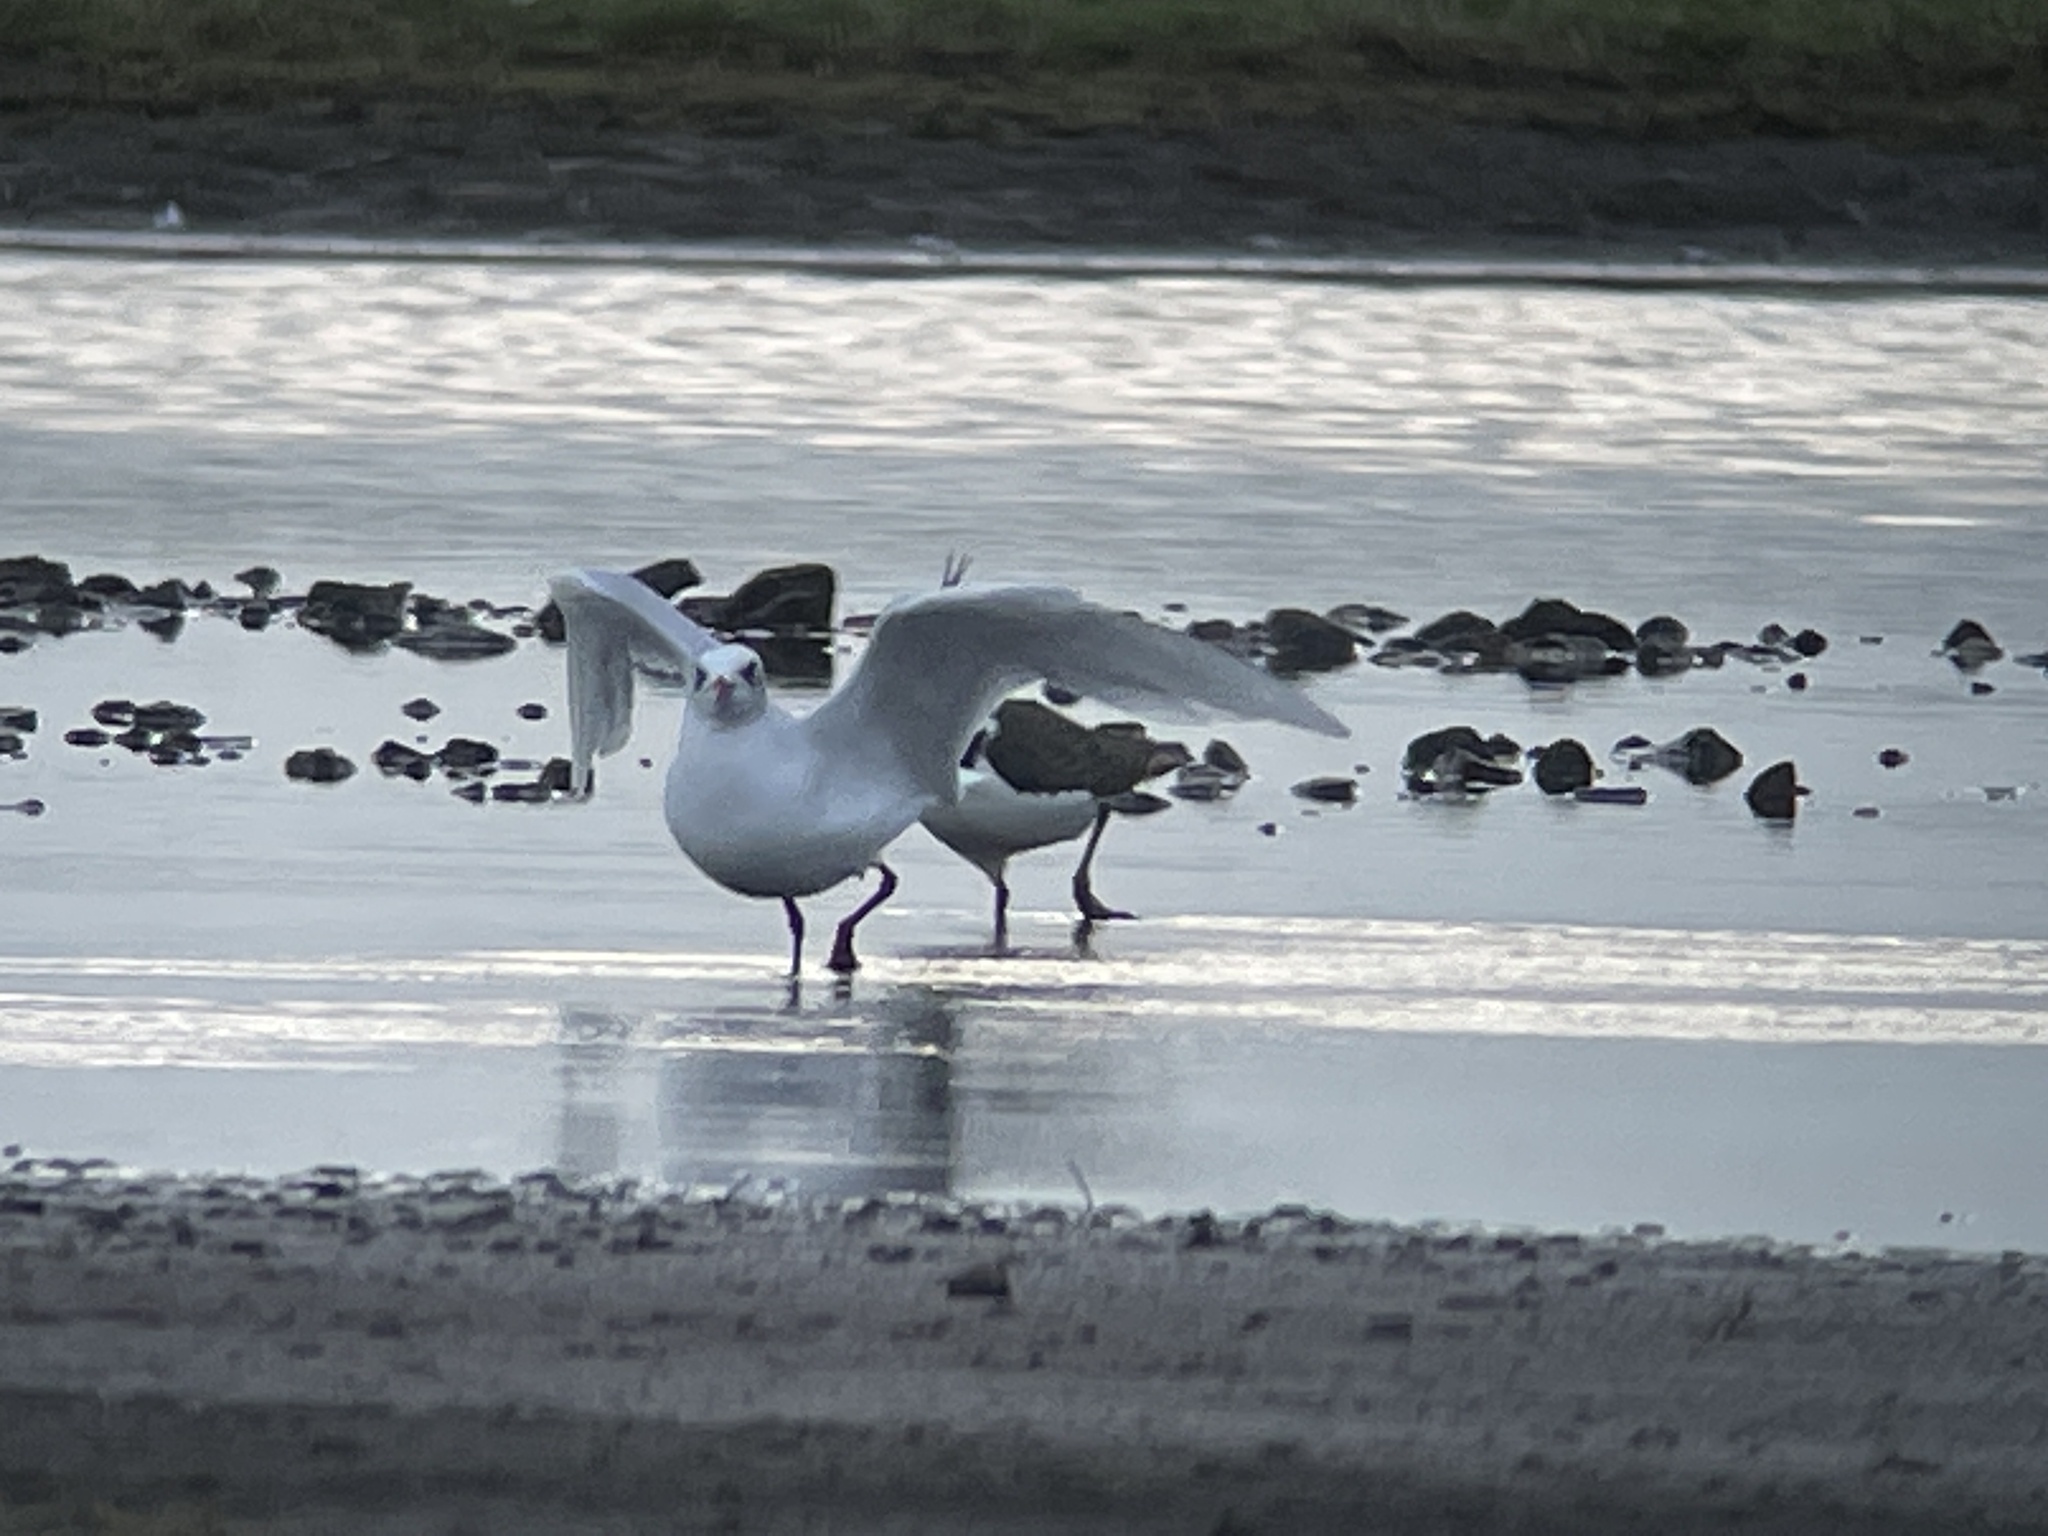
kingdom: Animalia
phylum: Chordata
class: Aves
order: Charadriiformes
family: Laridae
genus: Ichthyaetus
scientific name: Ichthyaetus melanocephalus
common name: Mediterranean gull
